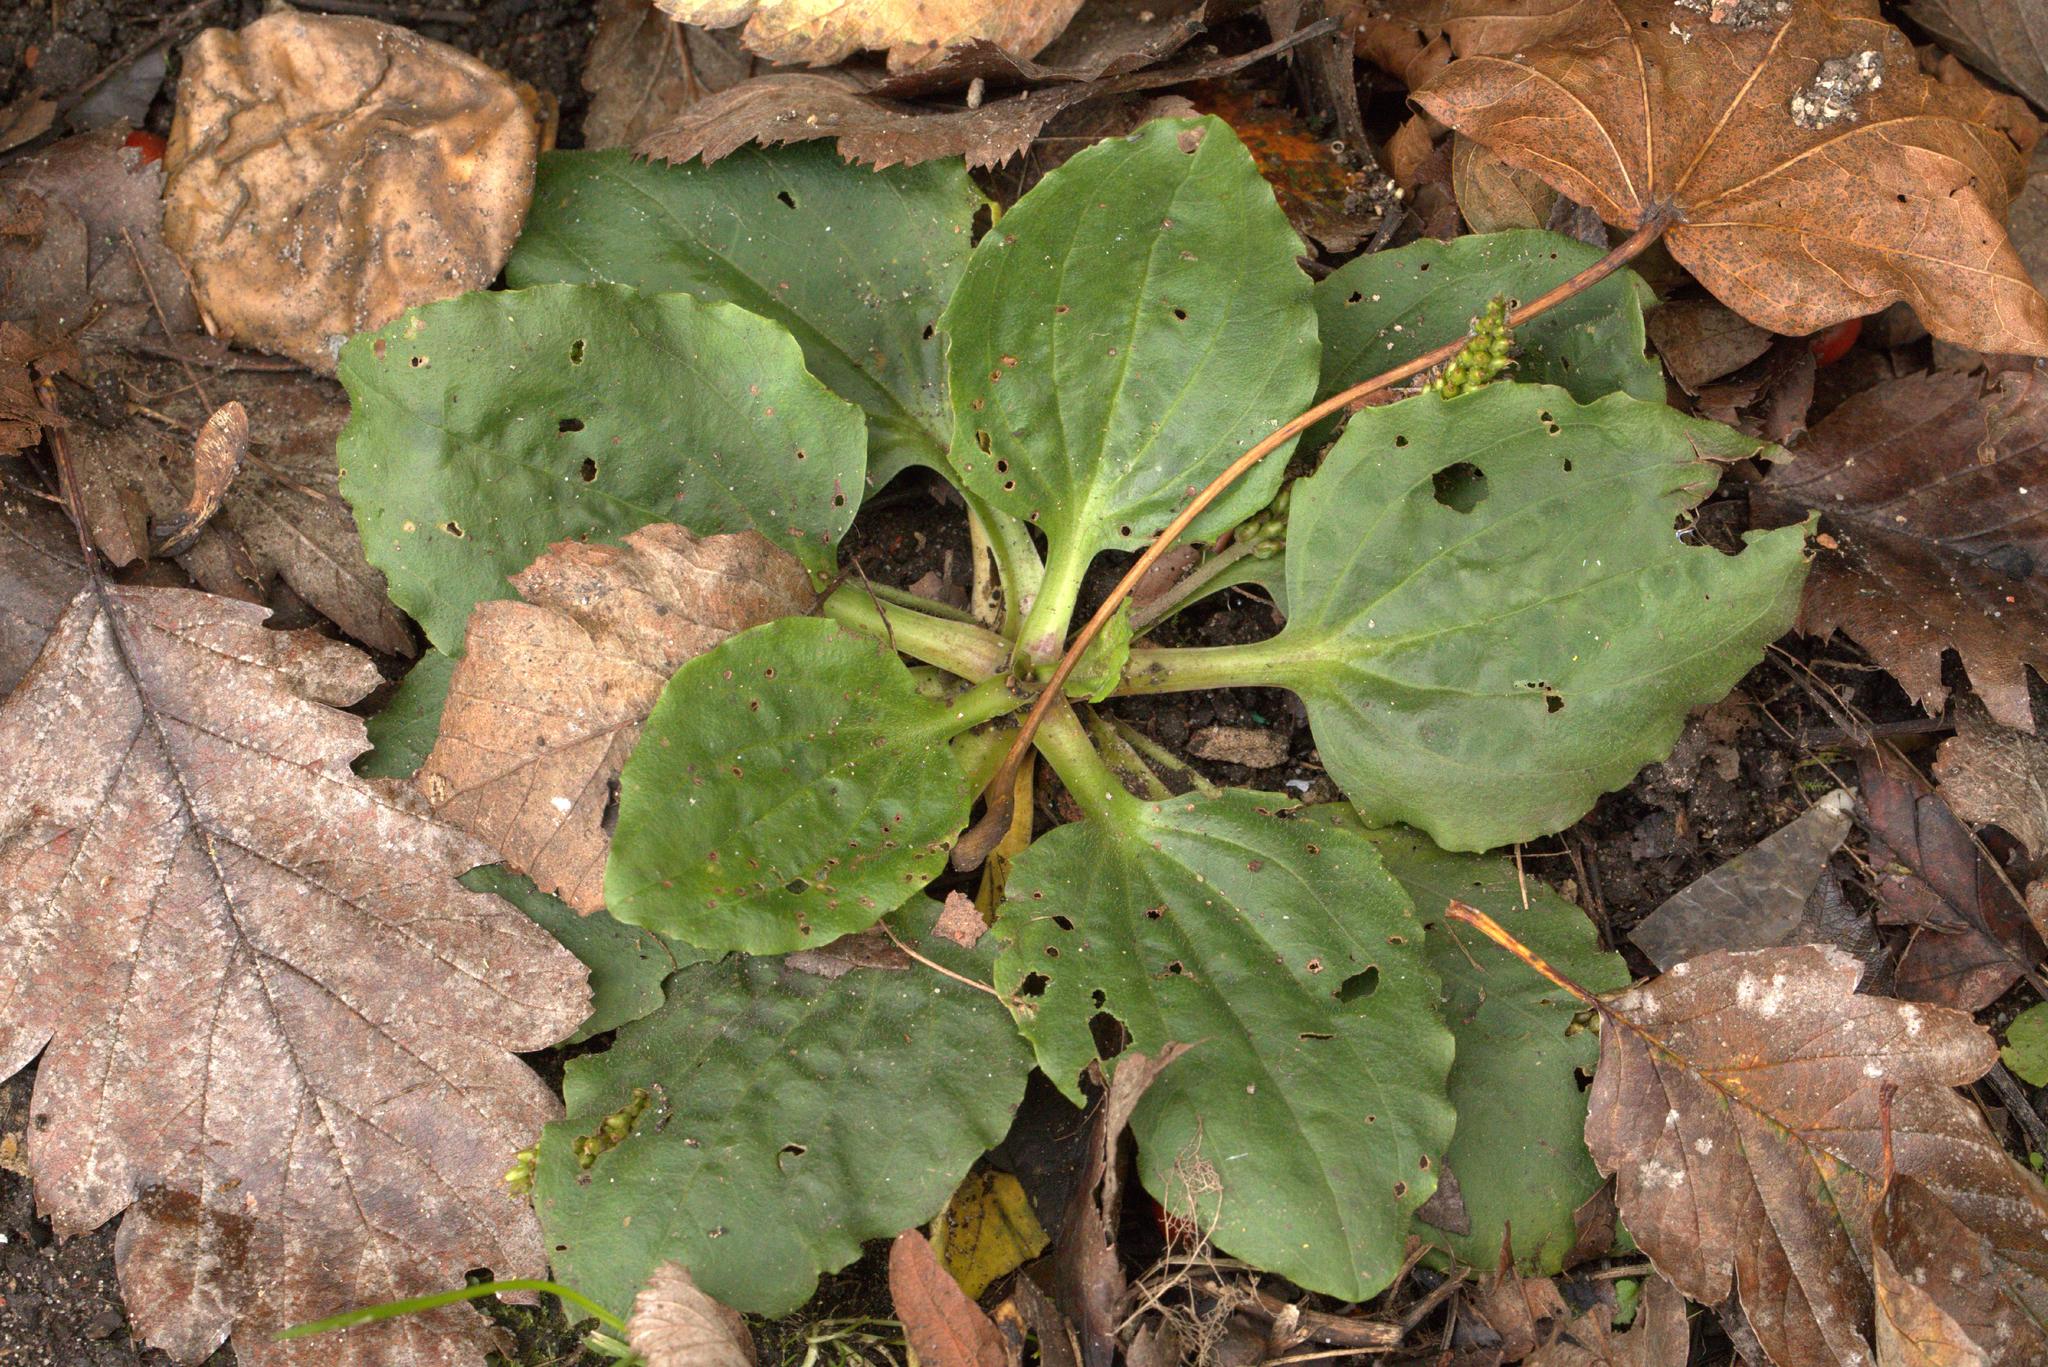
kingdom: Plantae
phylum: Tracheophyta
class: Magnoliopsida
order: Lamiales
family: Plantaginaceae
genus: Plantago
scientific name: Plantago major
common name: Common plantain
